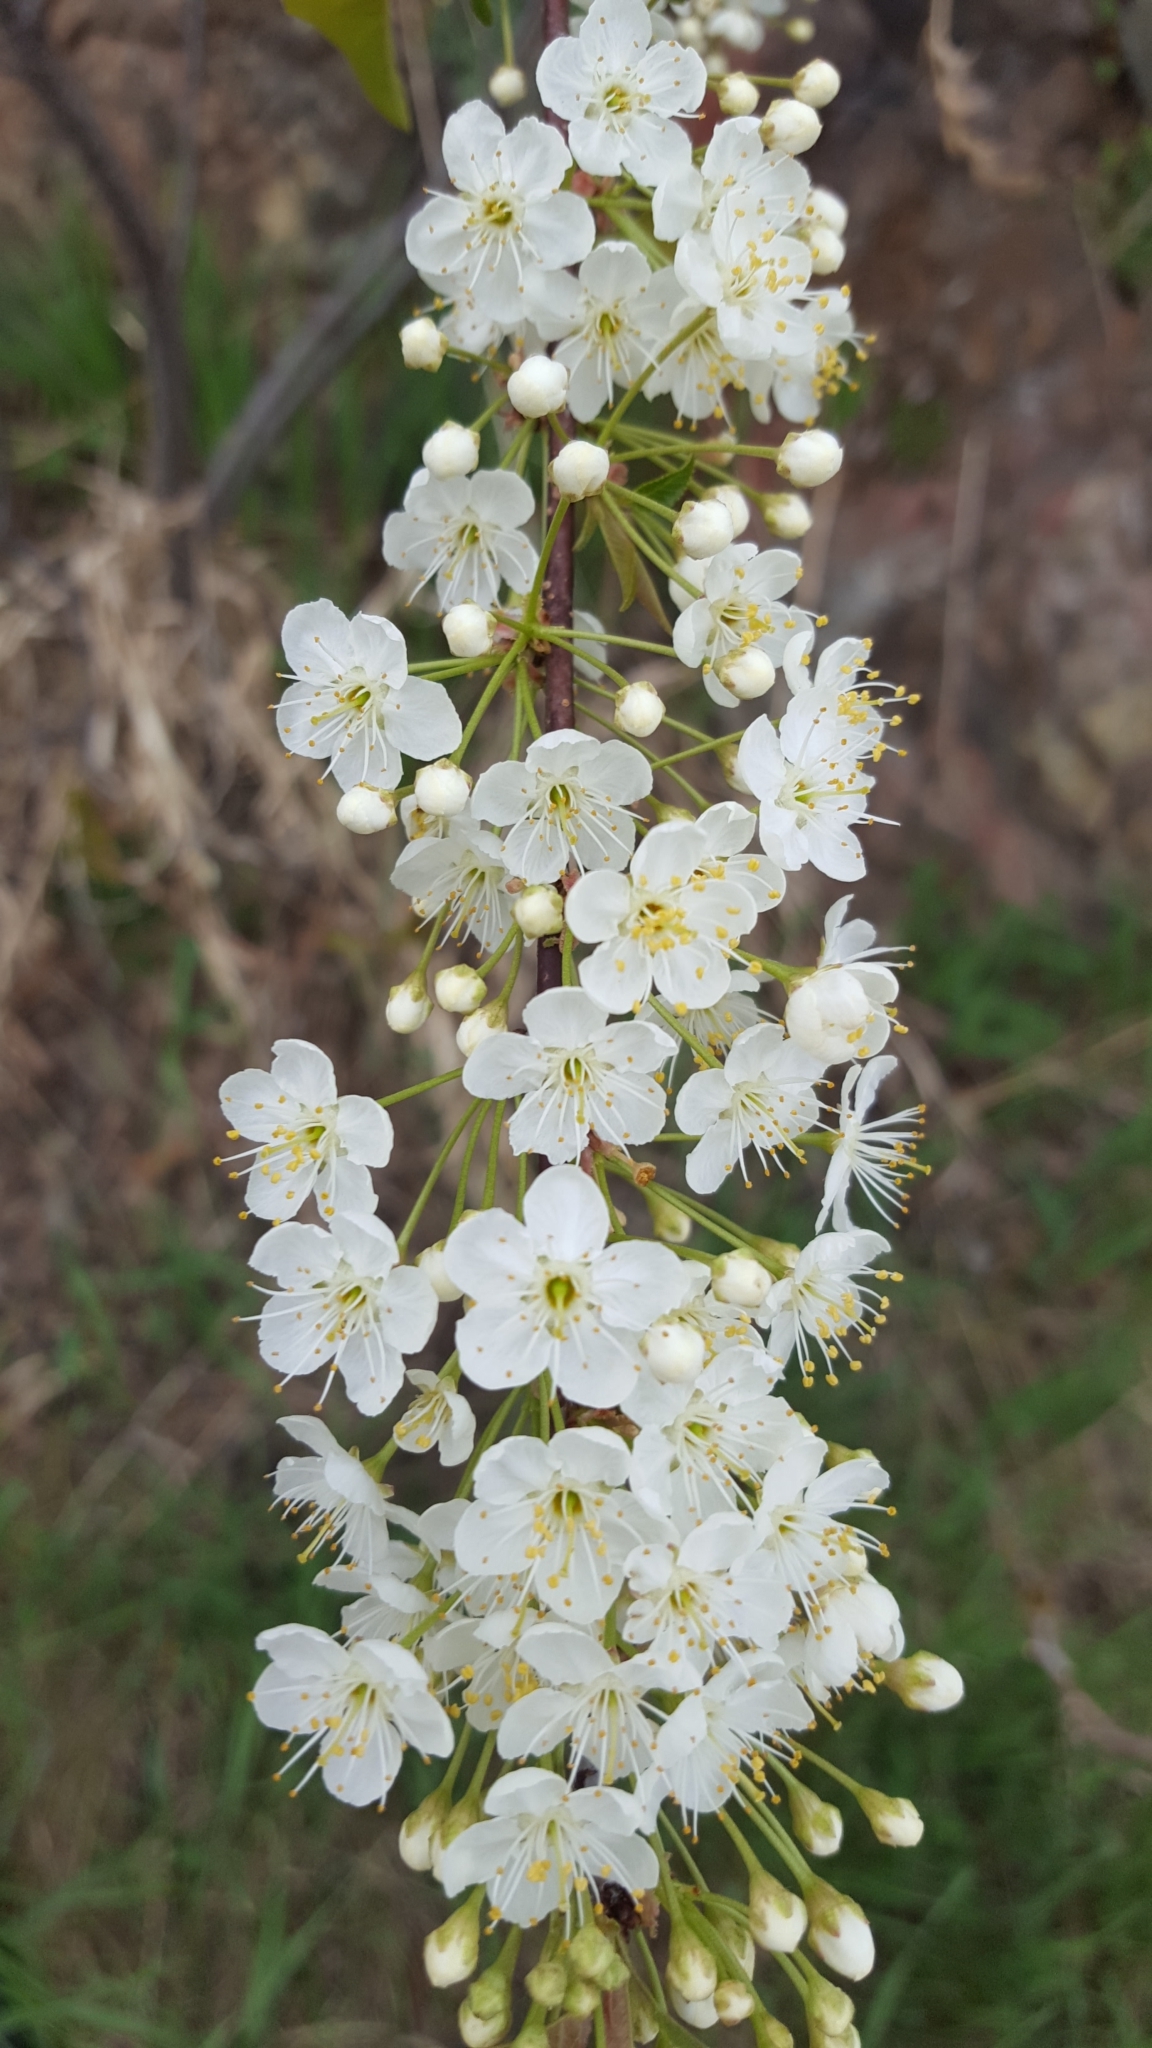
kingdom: Plantae
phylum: Tracheophyta
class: Magnoliopsida
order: Rosales
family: Rosaceae
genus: Prunus
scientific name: Prunus virginiana
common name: Chokecherry
